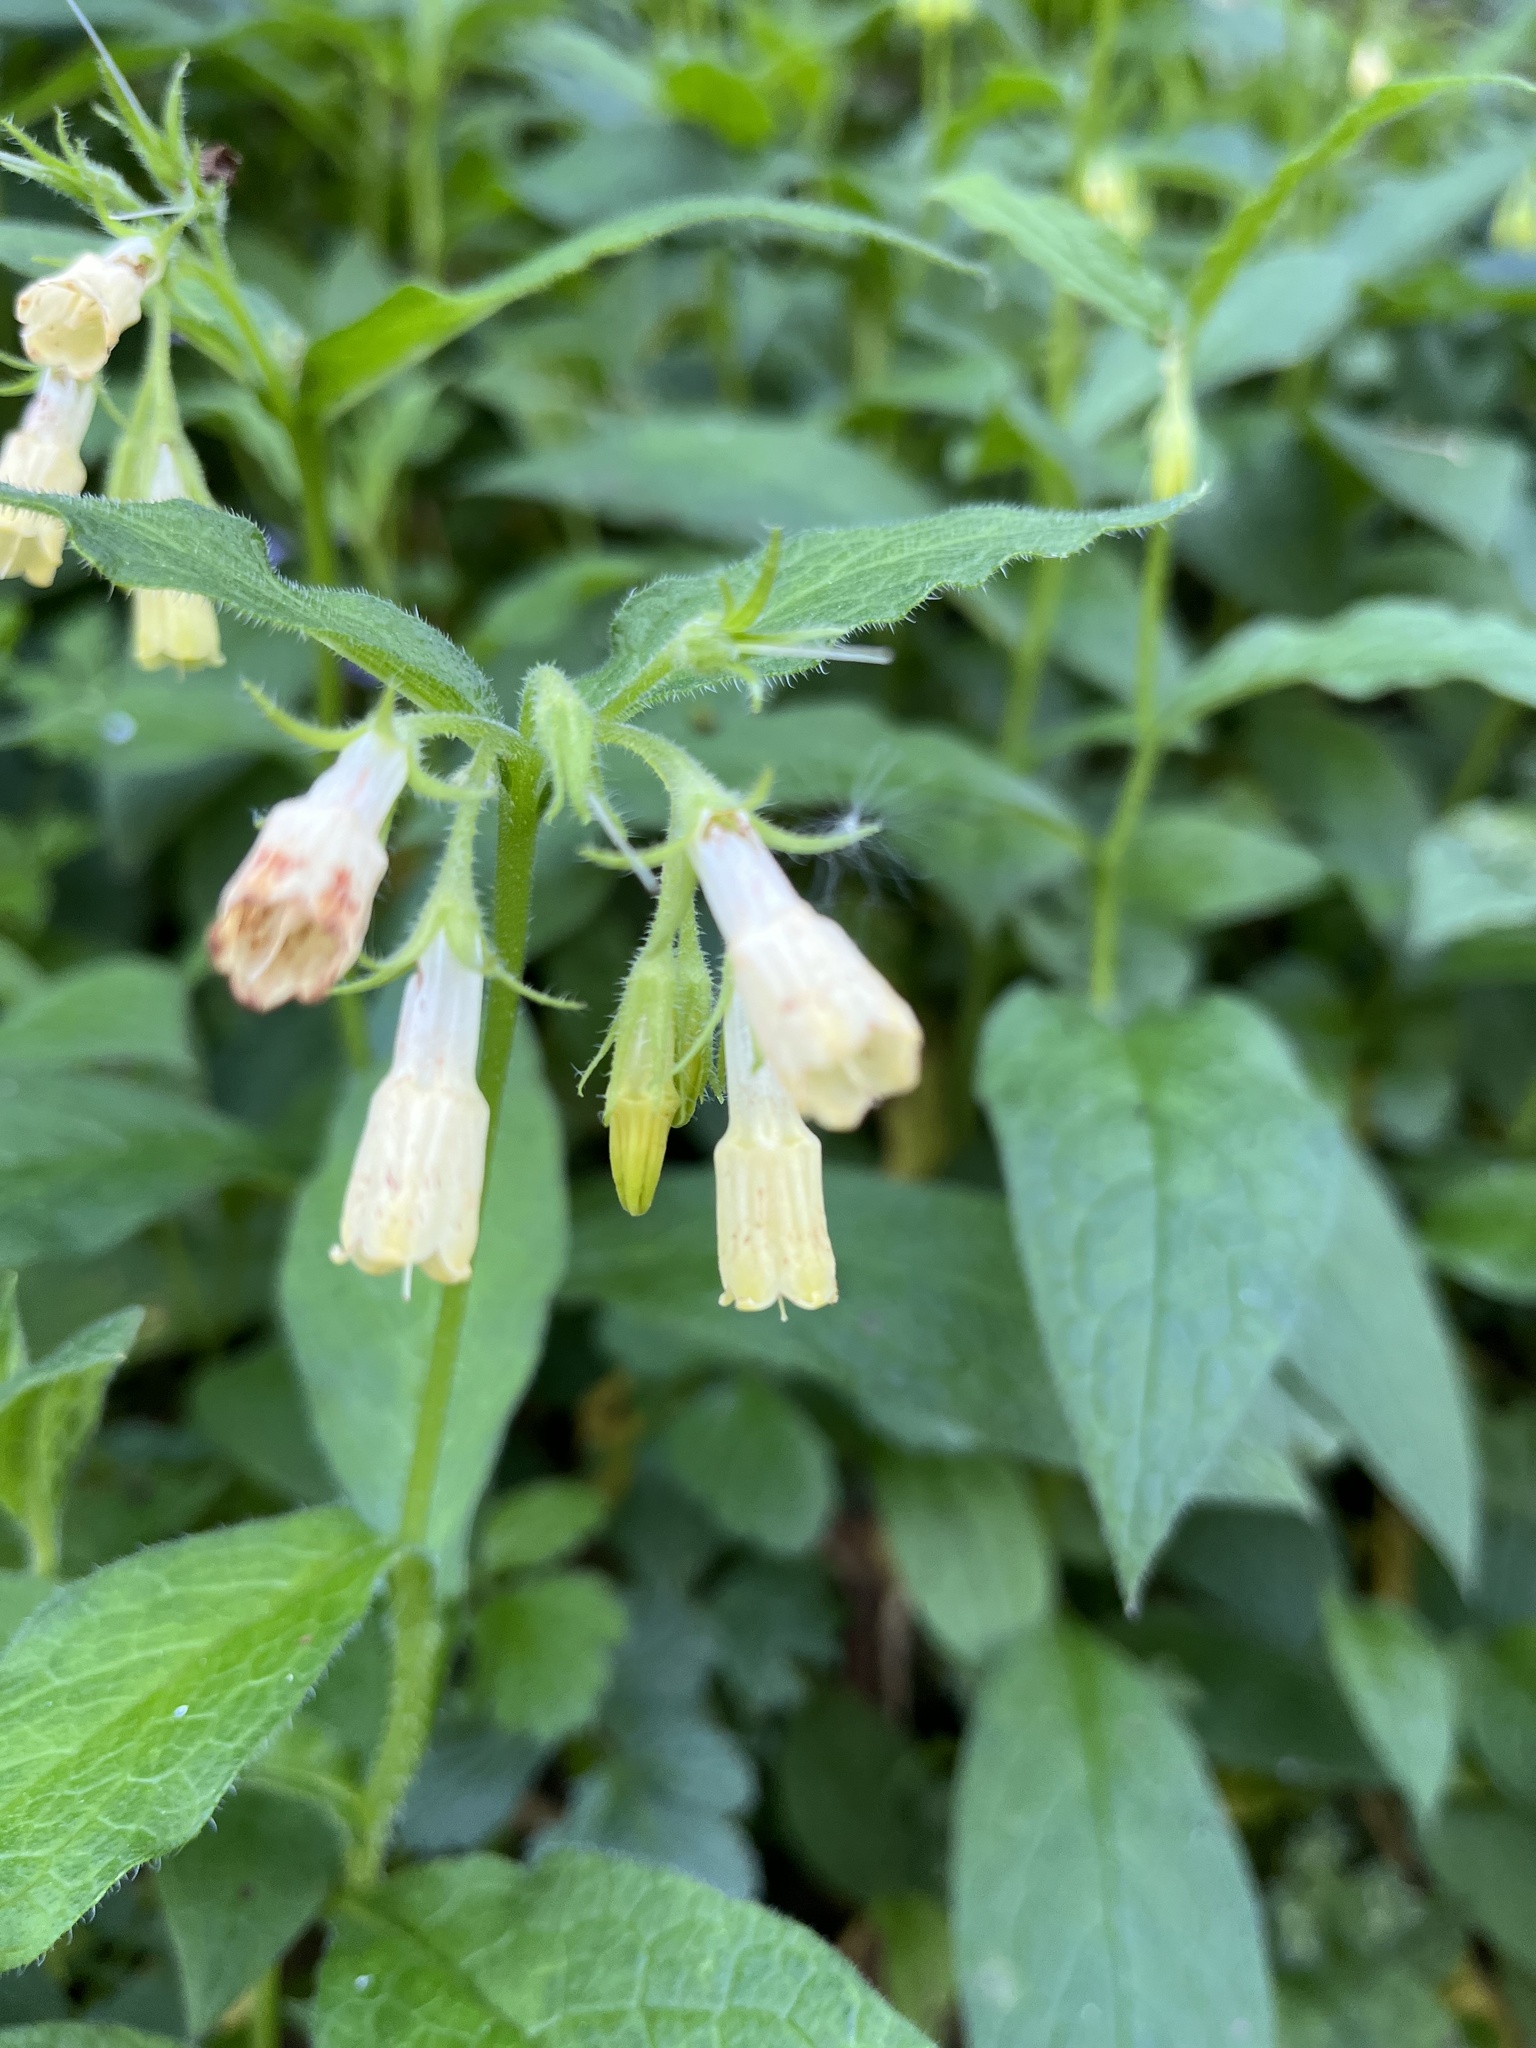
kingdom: Plantae
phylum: Tracheophyta
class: Magnoliopsida
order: Boraginales
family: Boraginaceae
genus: Symphytum
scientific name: Symphytum tuberosum
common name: Tuberous comfrey
